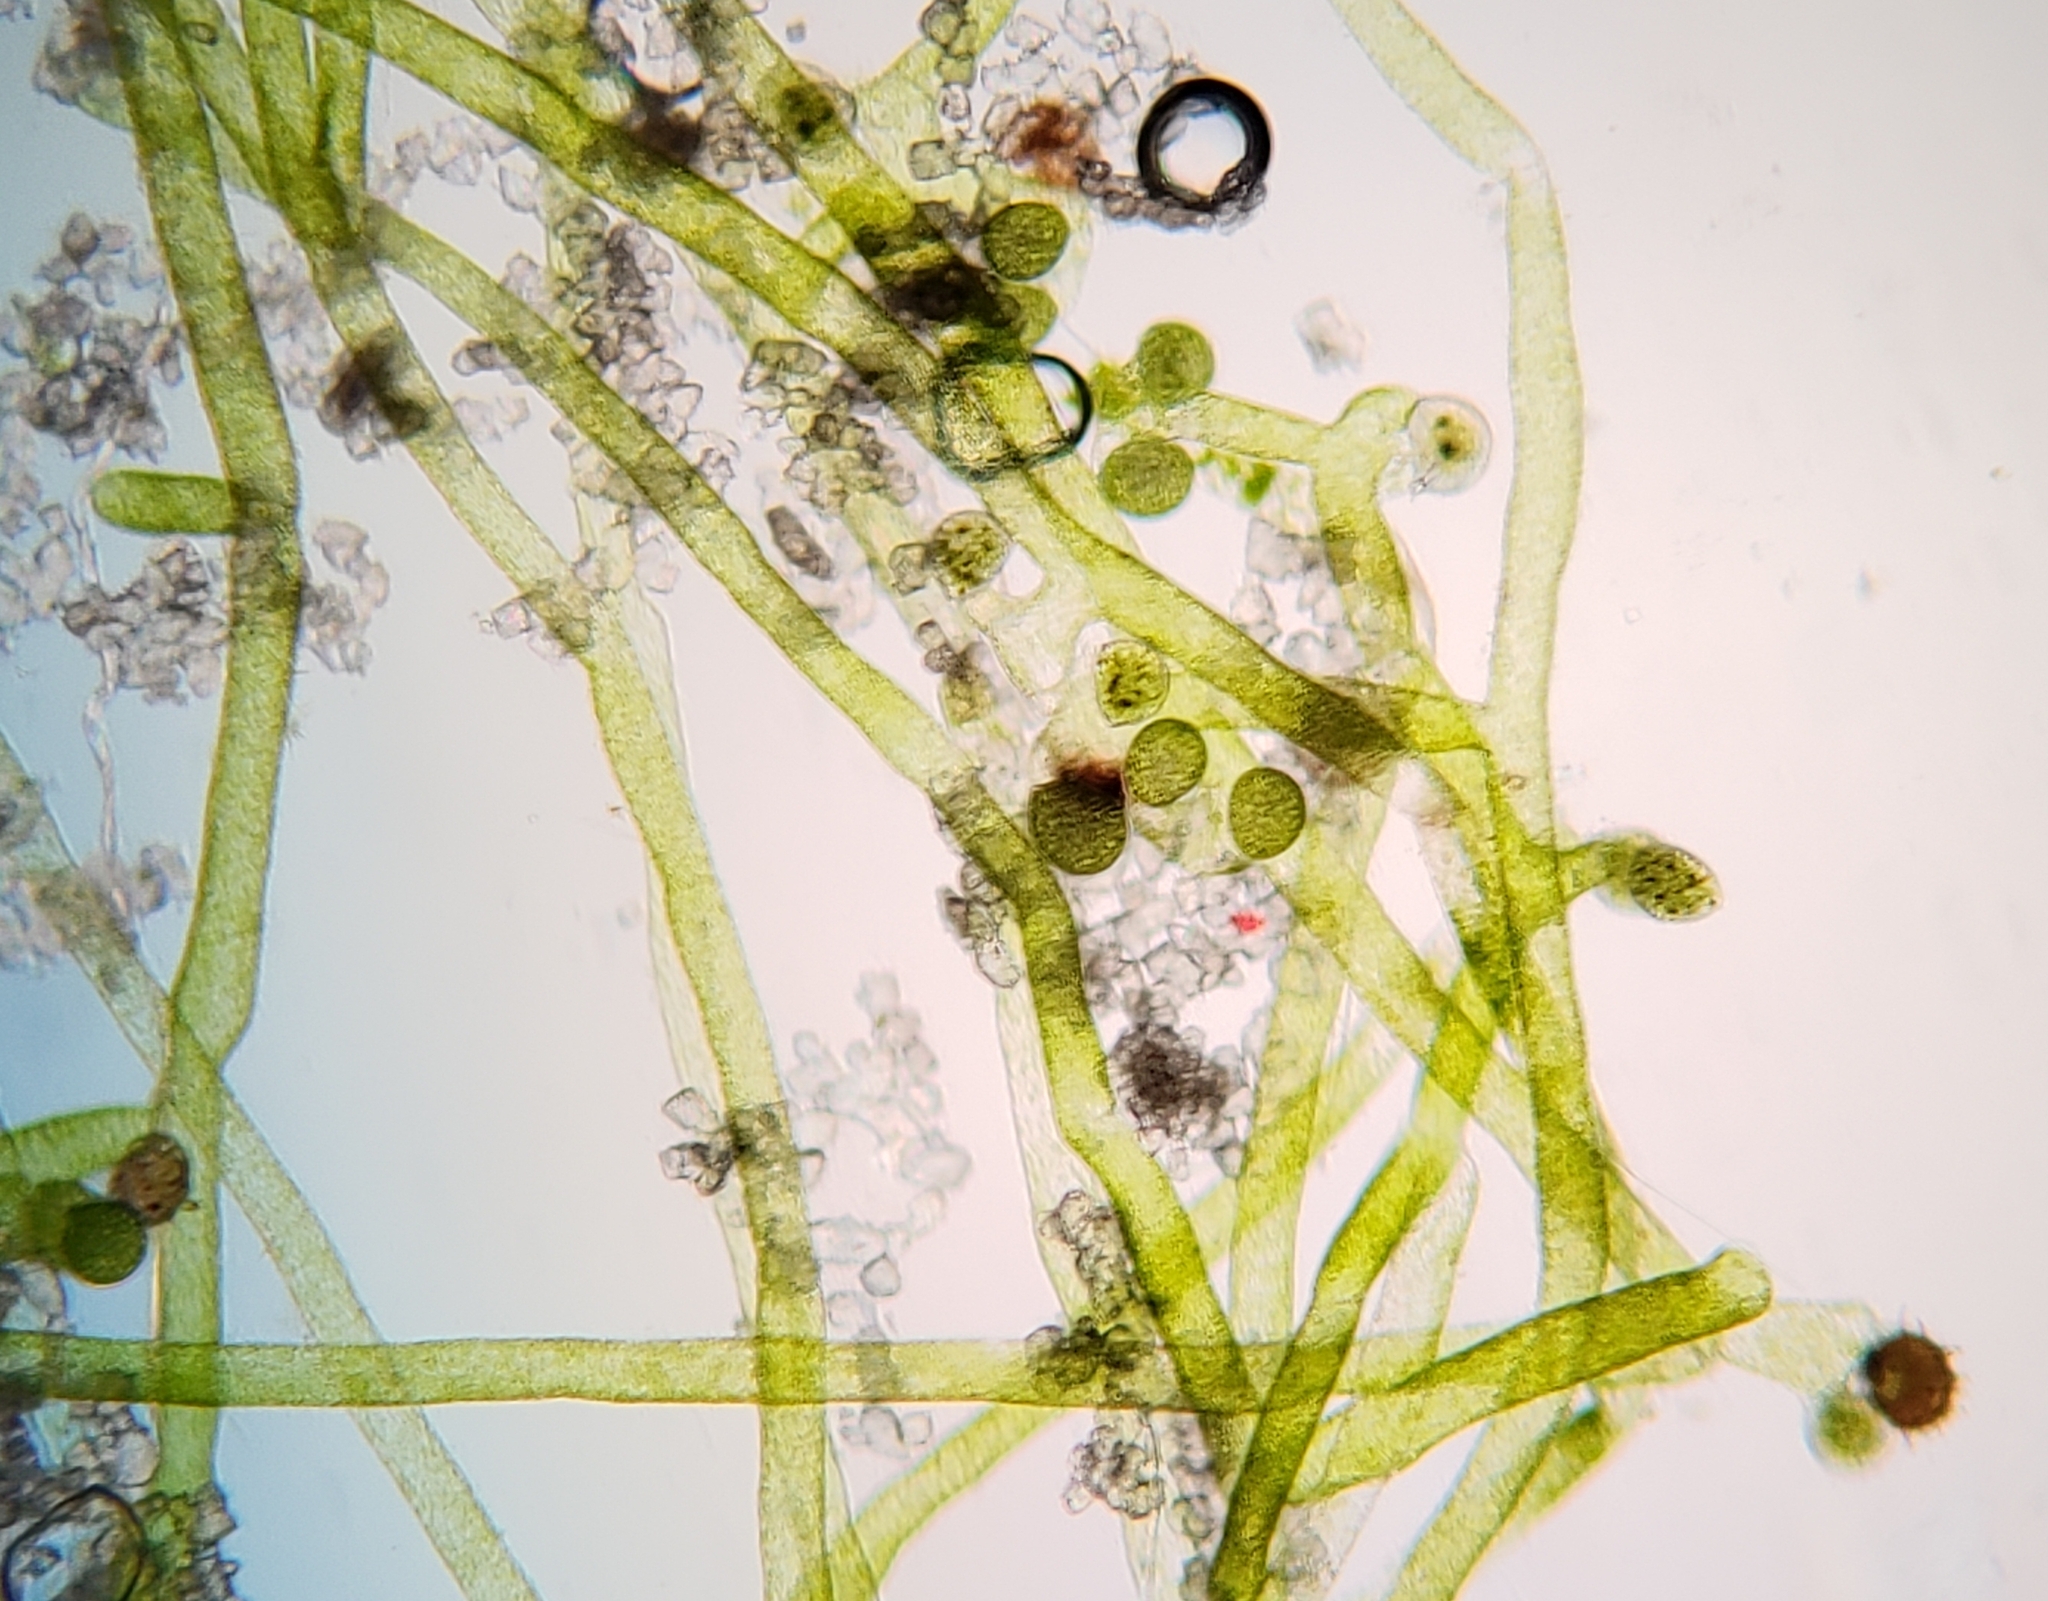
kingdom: Chromista
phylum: Ochrophyta
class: Xanthophyceae
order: Vaucheriales
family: Vaucheriaceae
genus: Vaucheria
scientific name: Vaucheria canalicularis
